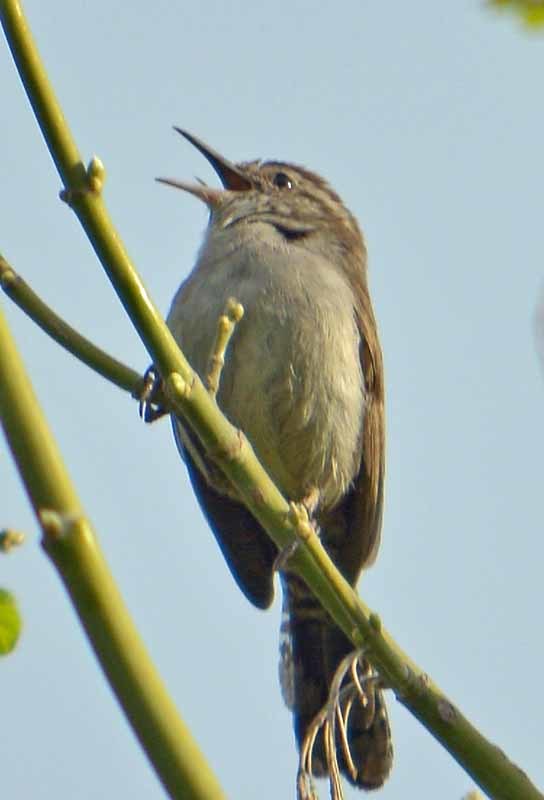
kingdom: Animalia
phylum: Chordata
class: Aves
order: Passeriformes
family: Troglodytidae
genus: Thryomanes
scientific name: Thryomanes bewickii
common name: Bewick's wren
